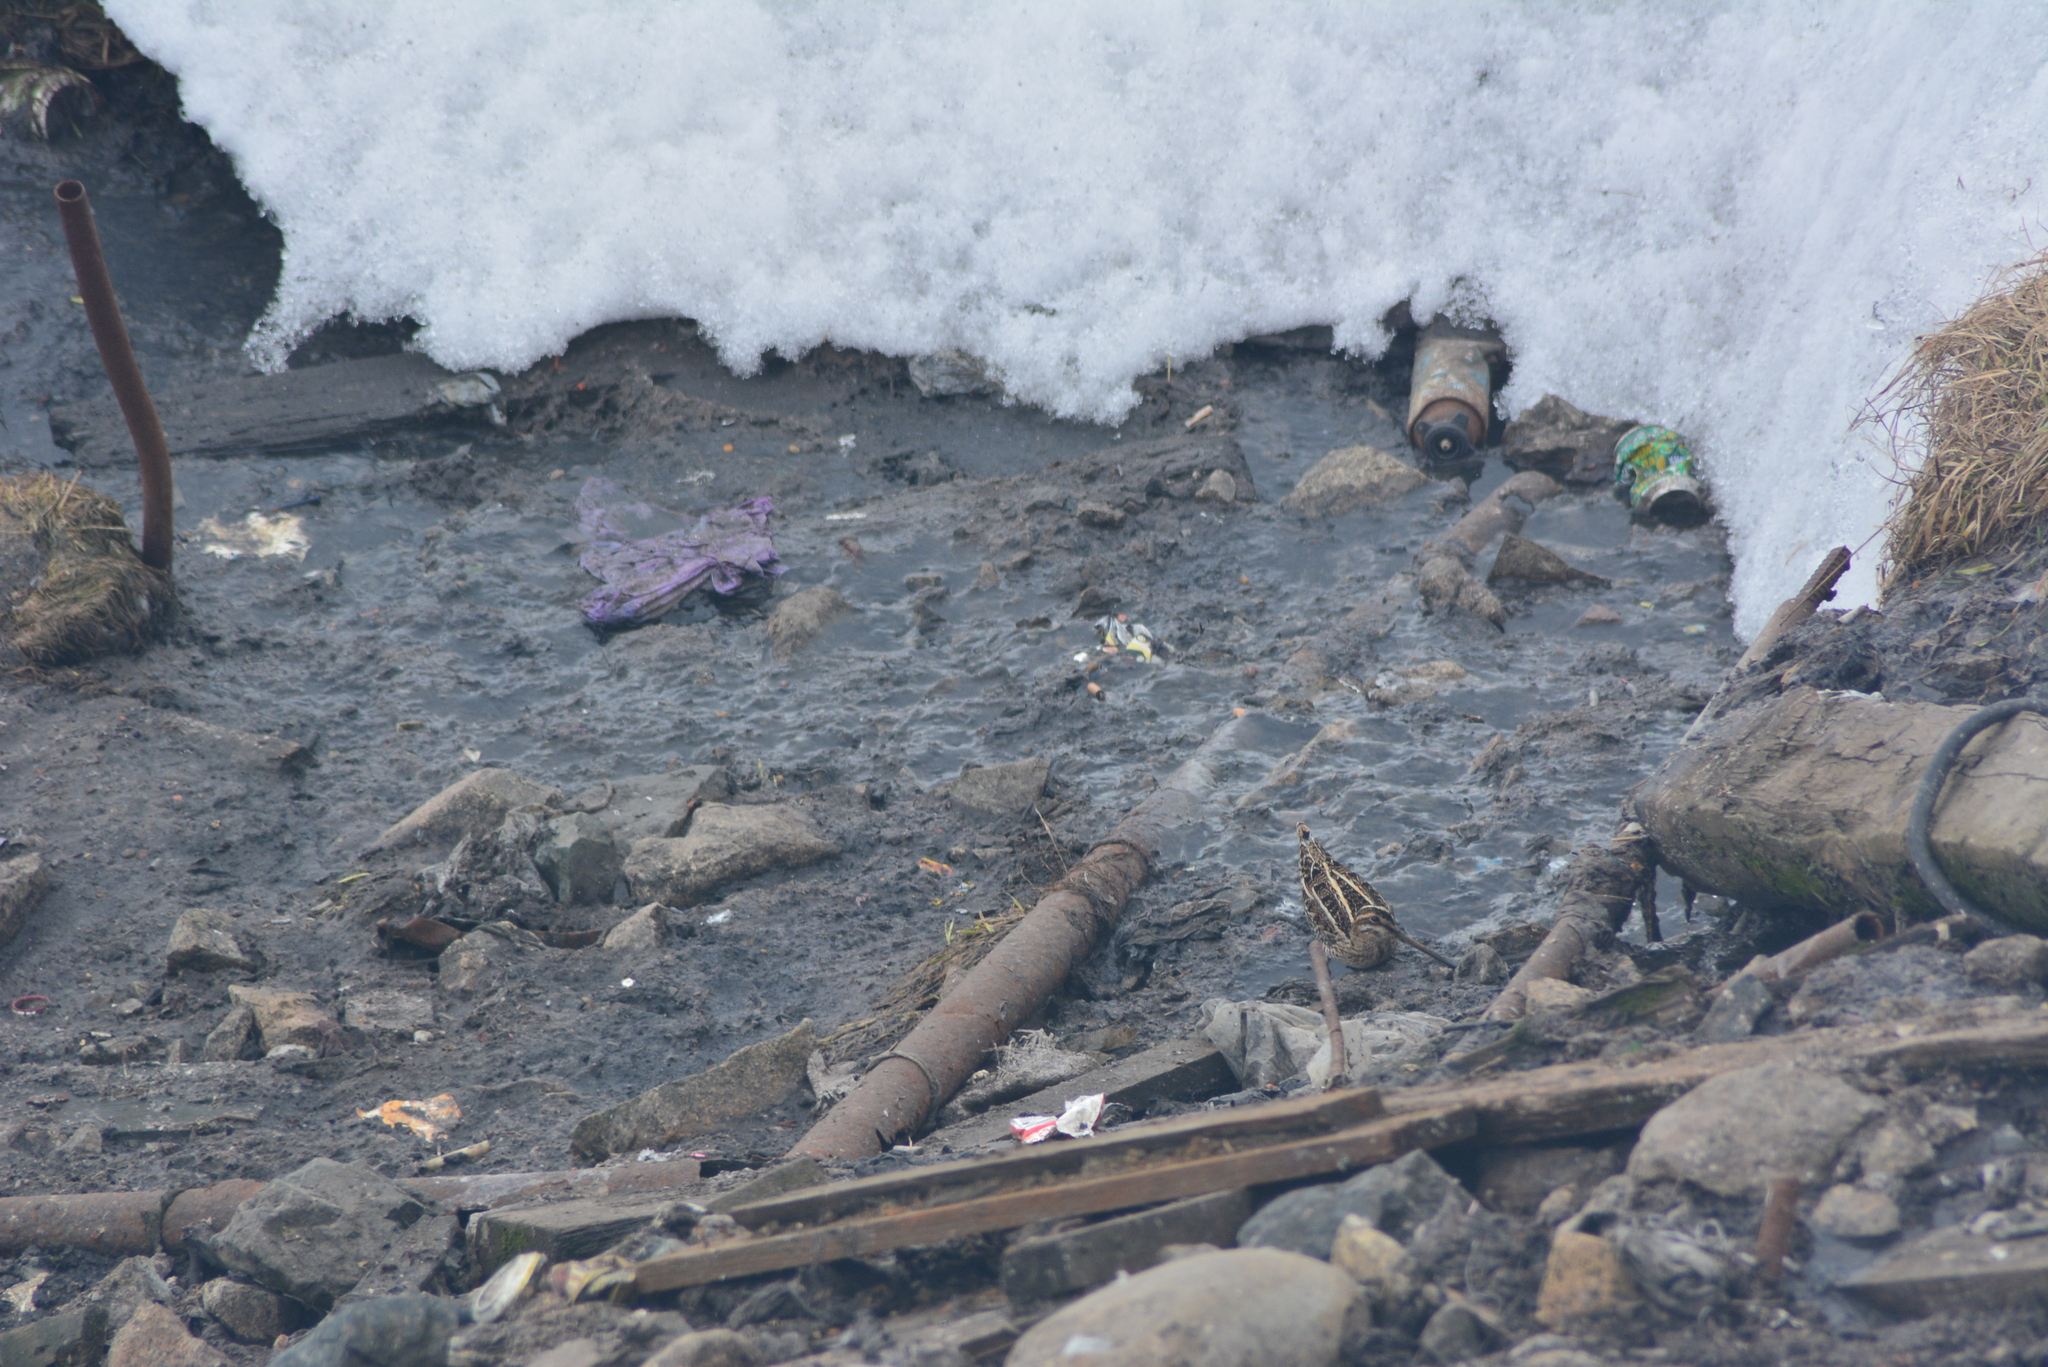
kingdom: Animalia
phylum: Chordata
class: Aves
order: Charadriiformes
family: Scolopacidae
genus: Gallinago
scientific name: Gallinago gallinago
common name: Common snipe
